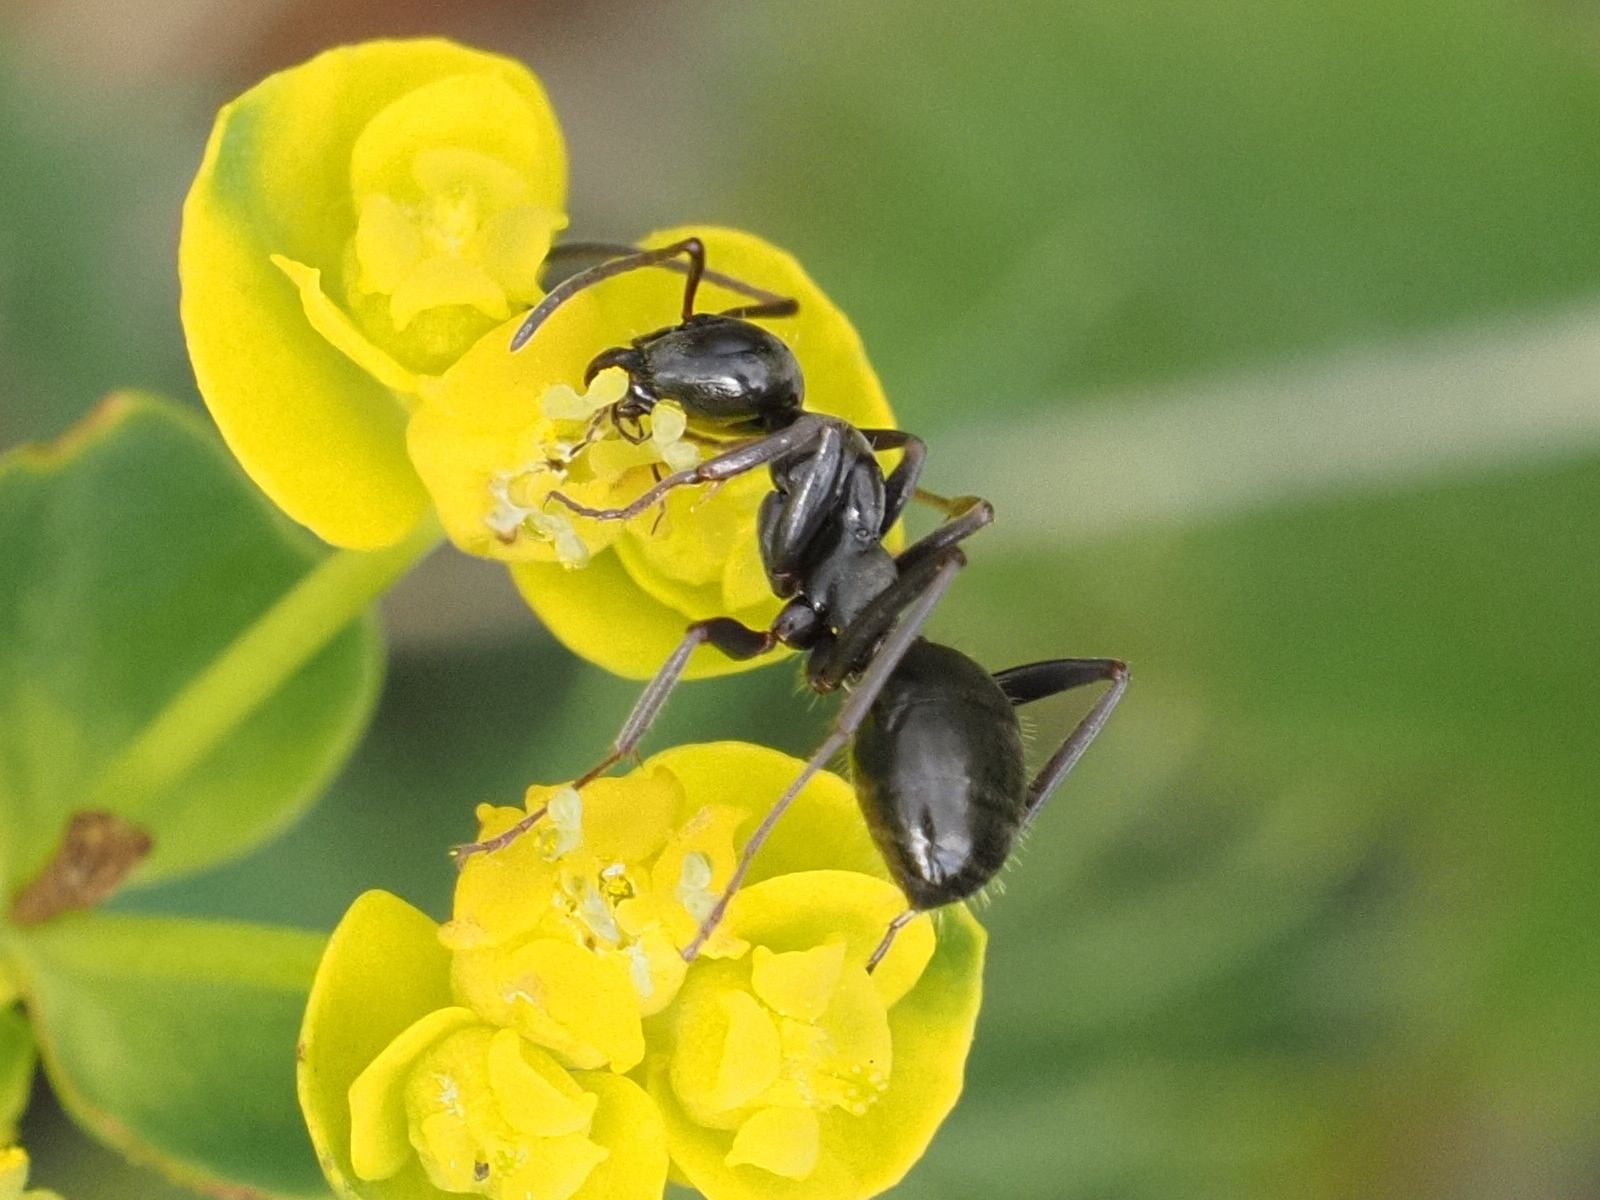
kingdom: Animalia
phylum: Arthropoda
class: Insecta
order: Hymenoptera
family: Formicidae
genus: Formica
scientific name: Formica gagates
